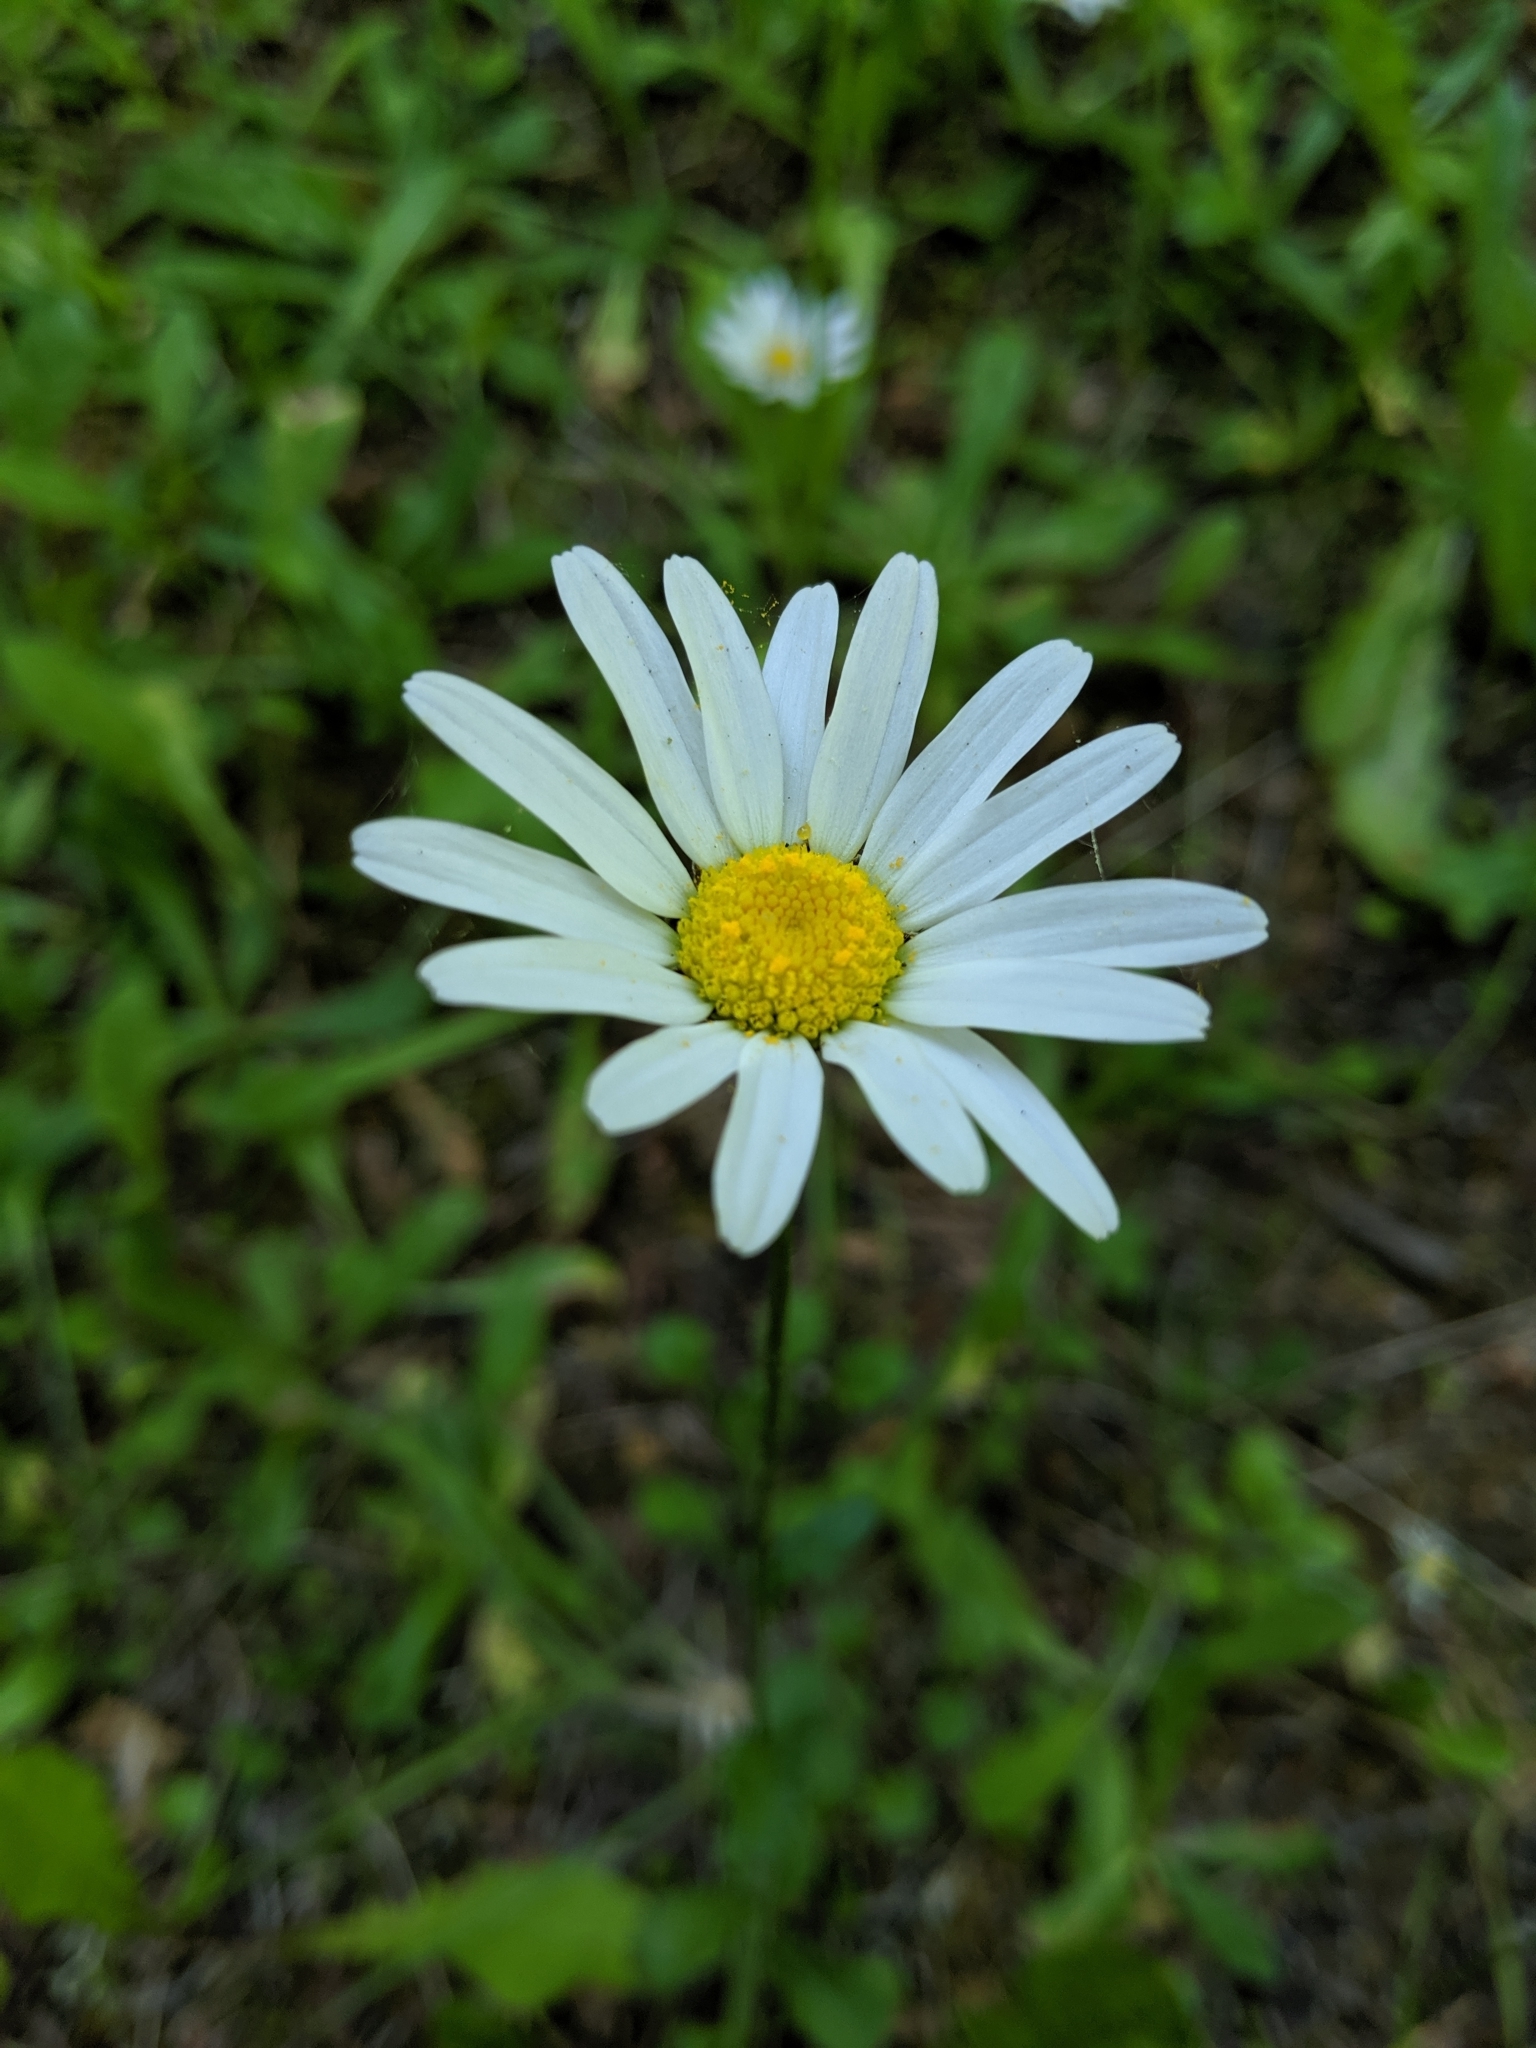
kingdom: Plantae
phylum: Tracheophyta
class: Magnoliopsida
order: Asterales
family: Asteraceae
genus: Leucanthemum
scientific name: Leucanthemum vulgare
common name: Oxeye daisy
